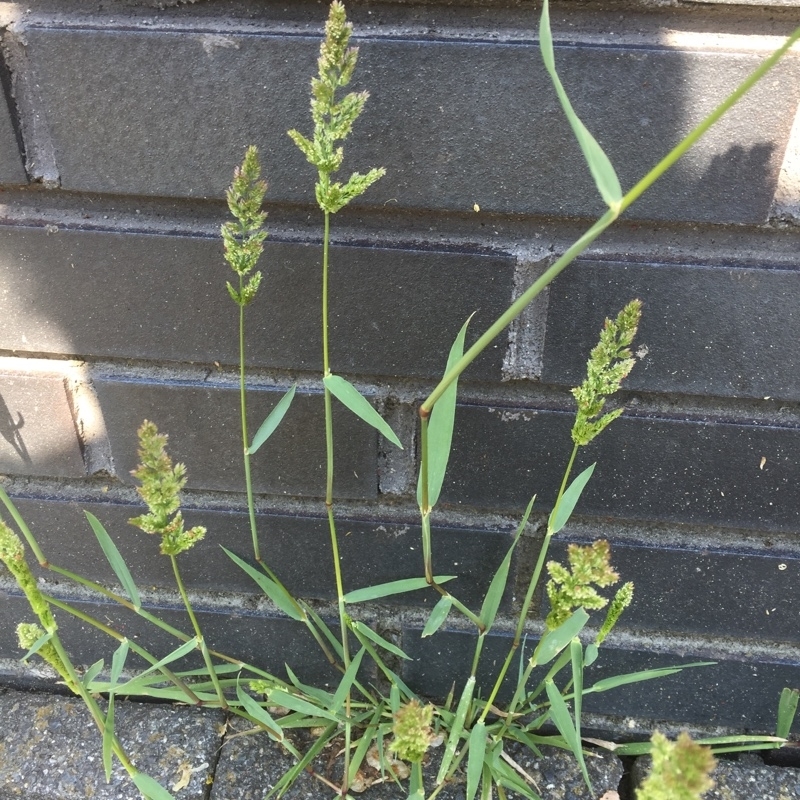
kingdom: Plantae
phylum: Tracheophyta
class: Liliopsida
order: Poales
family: Poaceae
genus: Polypogon
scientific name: Polypogon viridis
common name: Water bent
